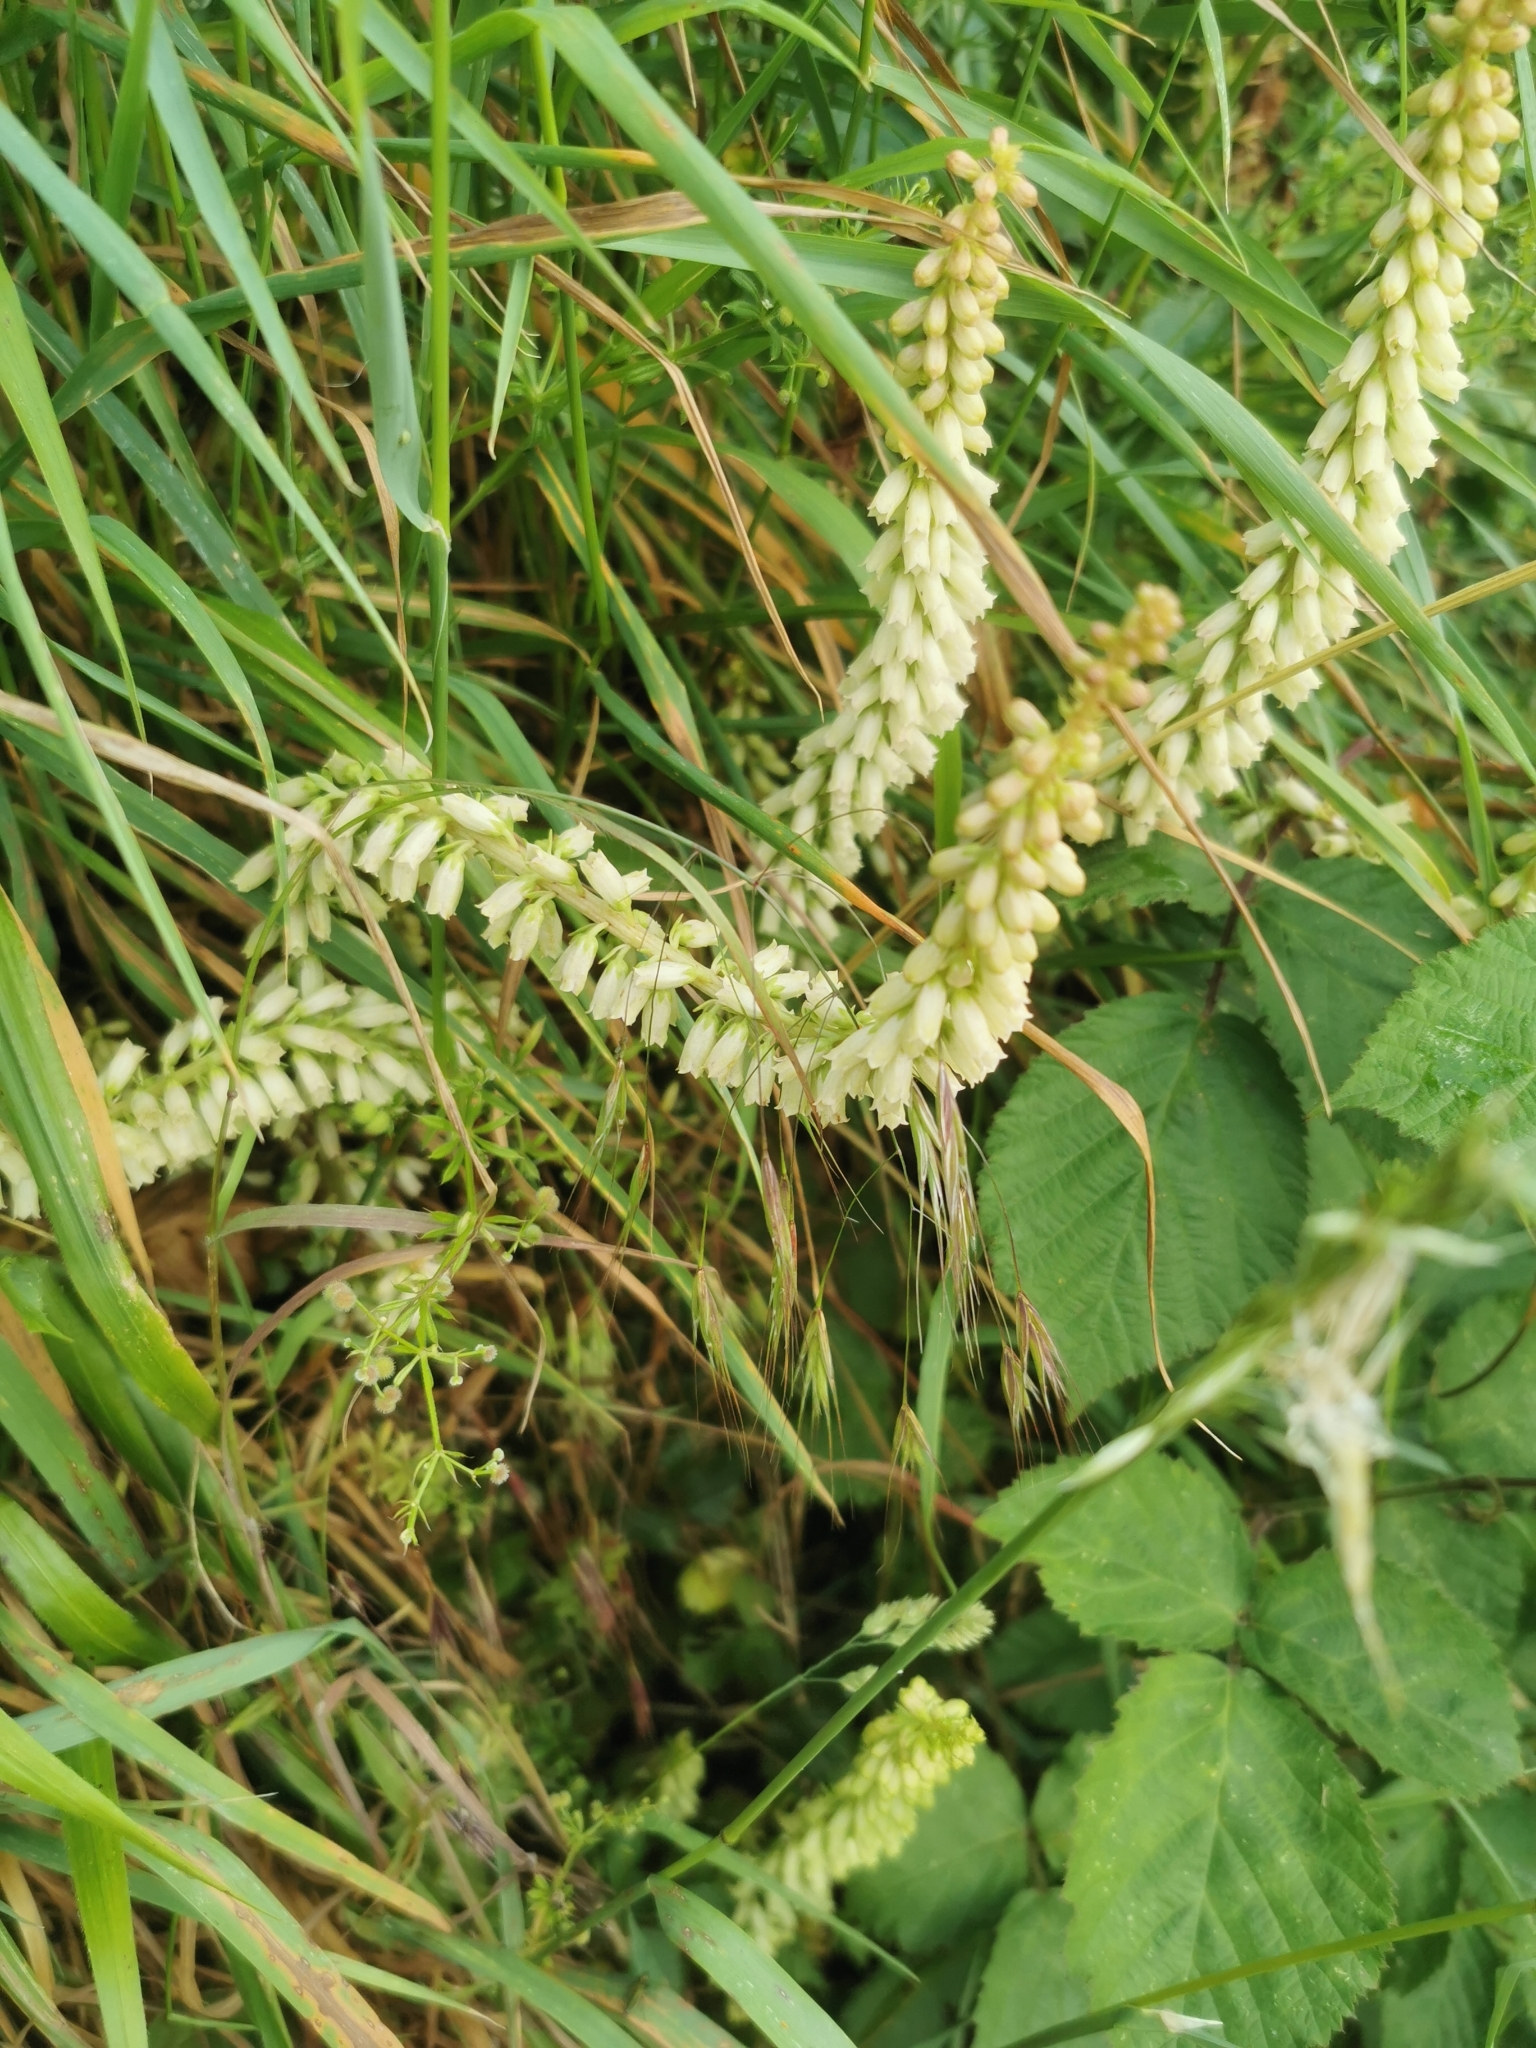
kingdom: Plantae
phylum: Tracheophyta
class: Magnoliopsida
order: Saxifragales
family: Crassulaceae
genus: Umbilicus
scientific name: Umbilicus rupestris
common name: Navelwort
